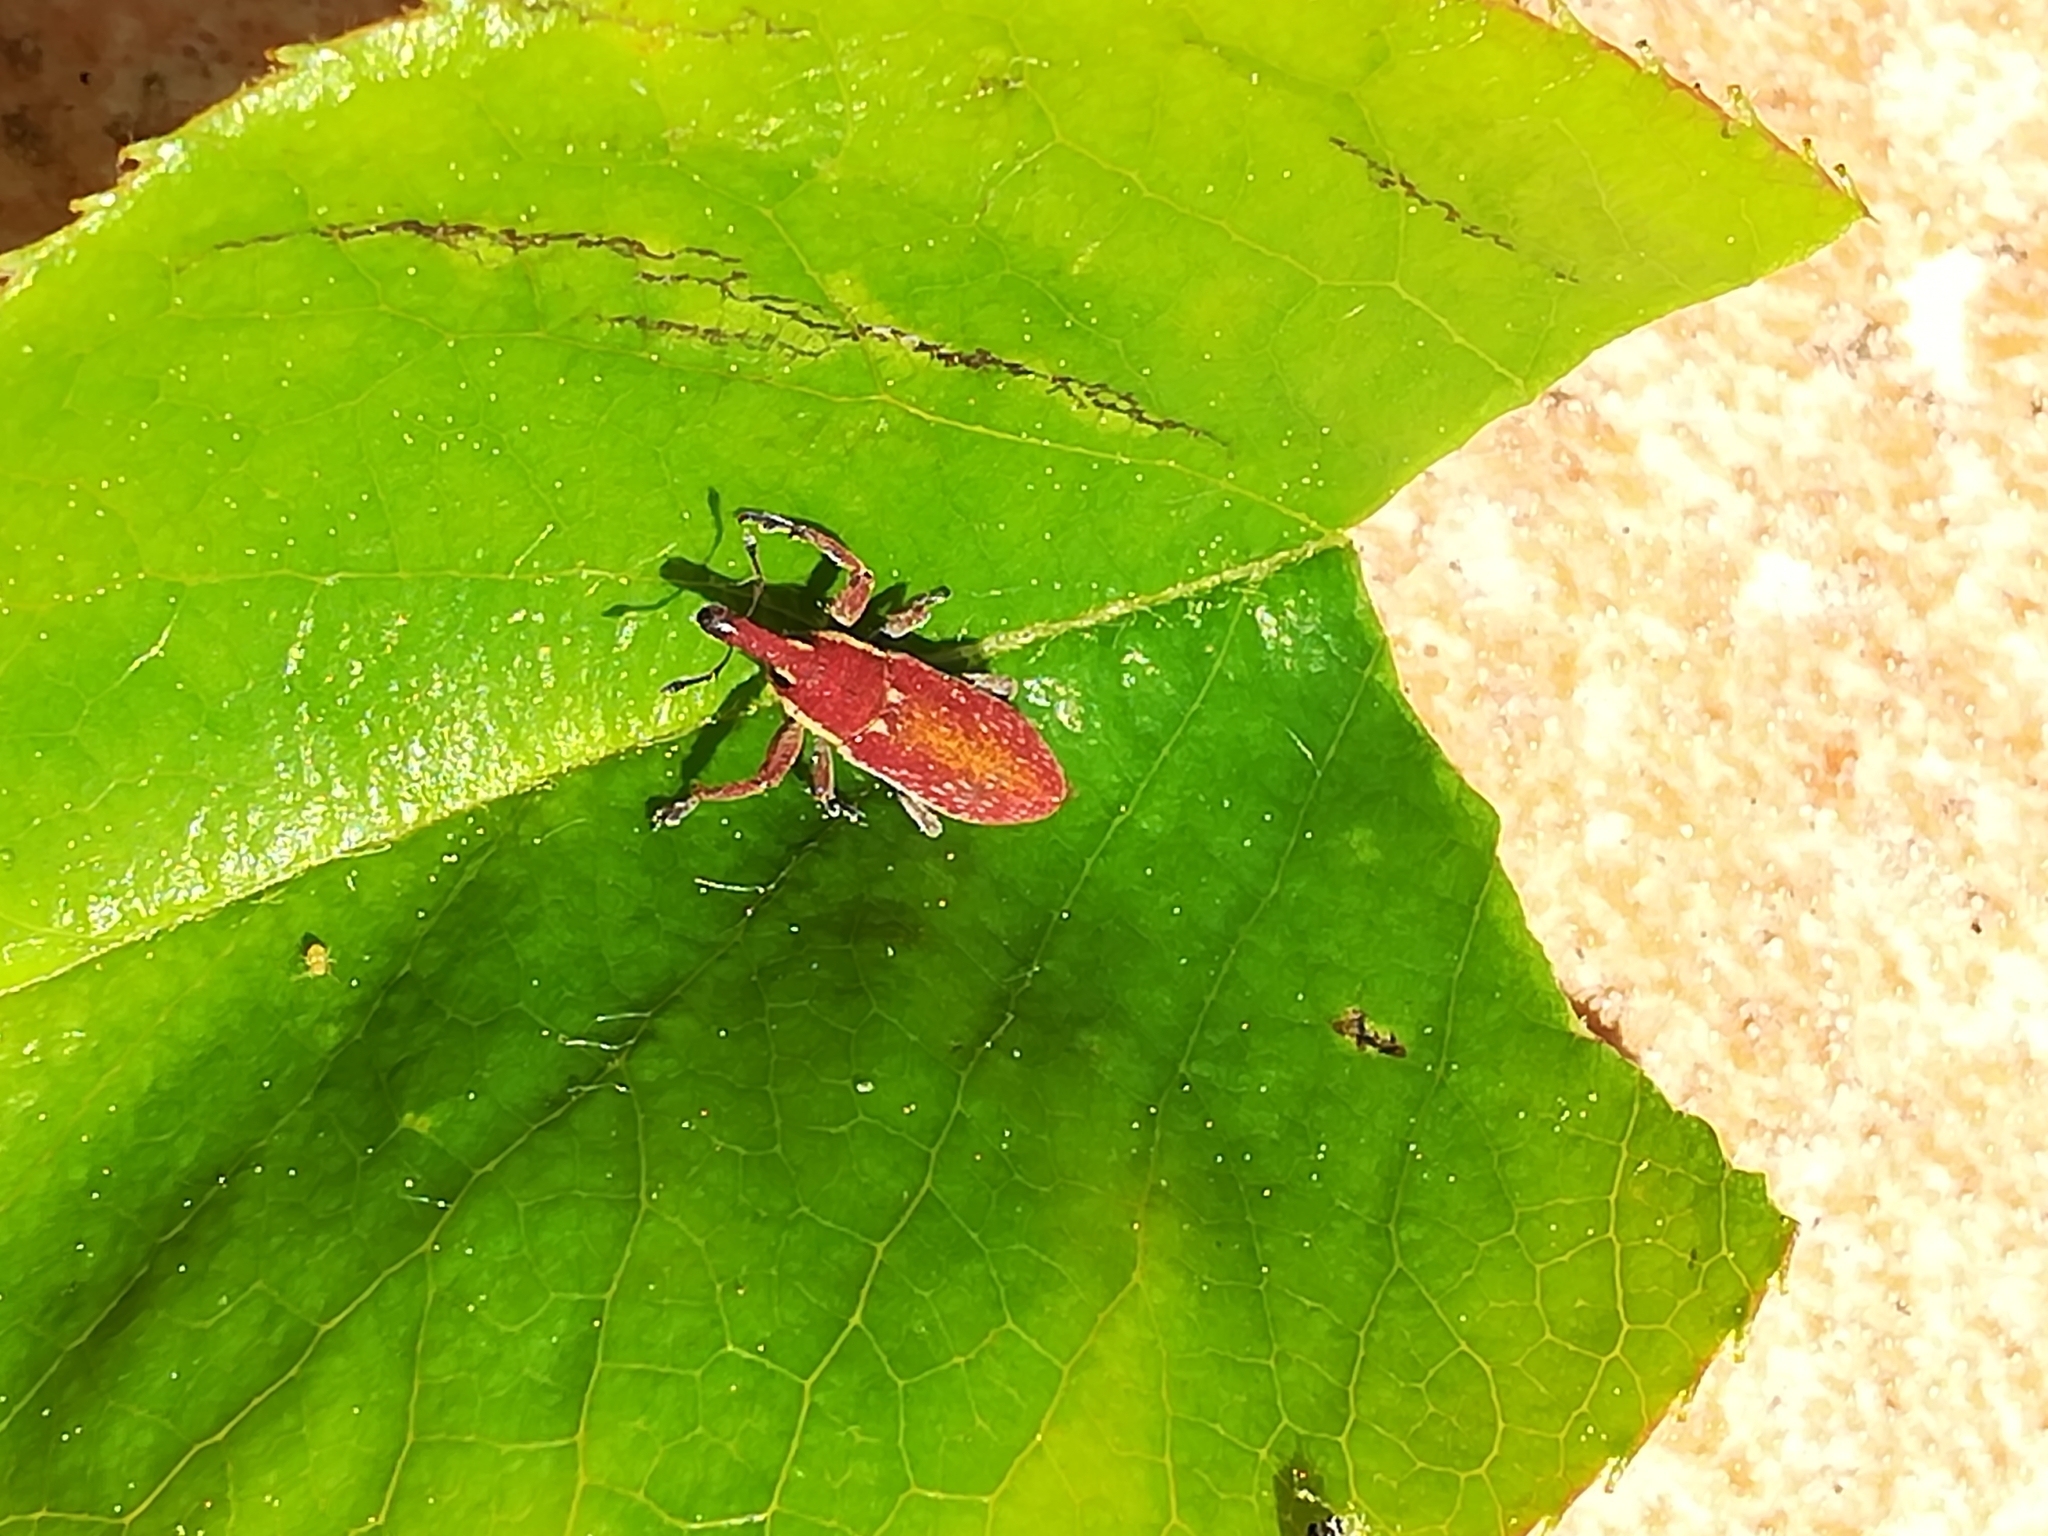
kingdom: Animalia
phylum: Arthropoda
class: Insecta
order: Coleoptera
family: Curculionidae
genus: Lixus
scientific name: Lixus vilis
